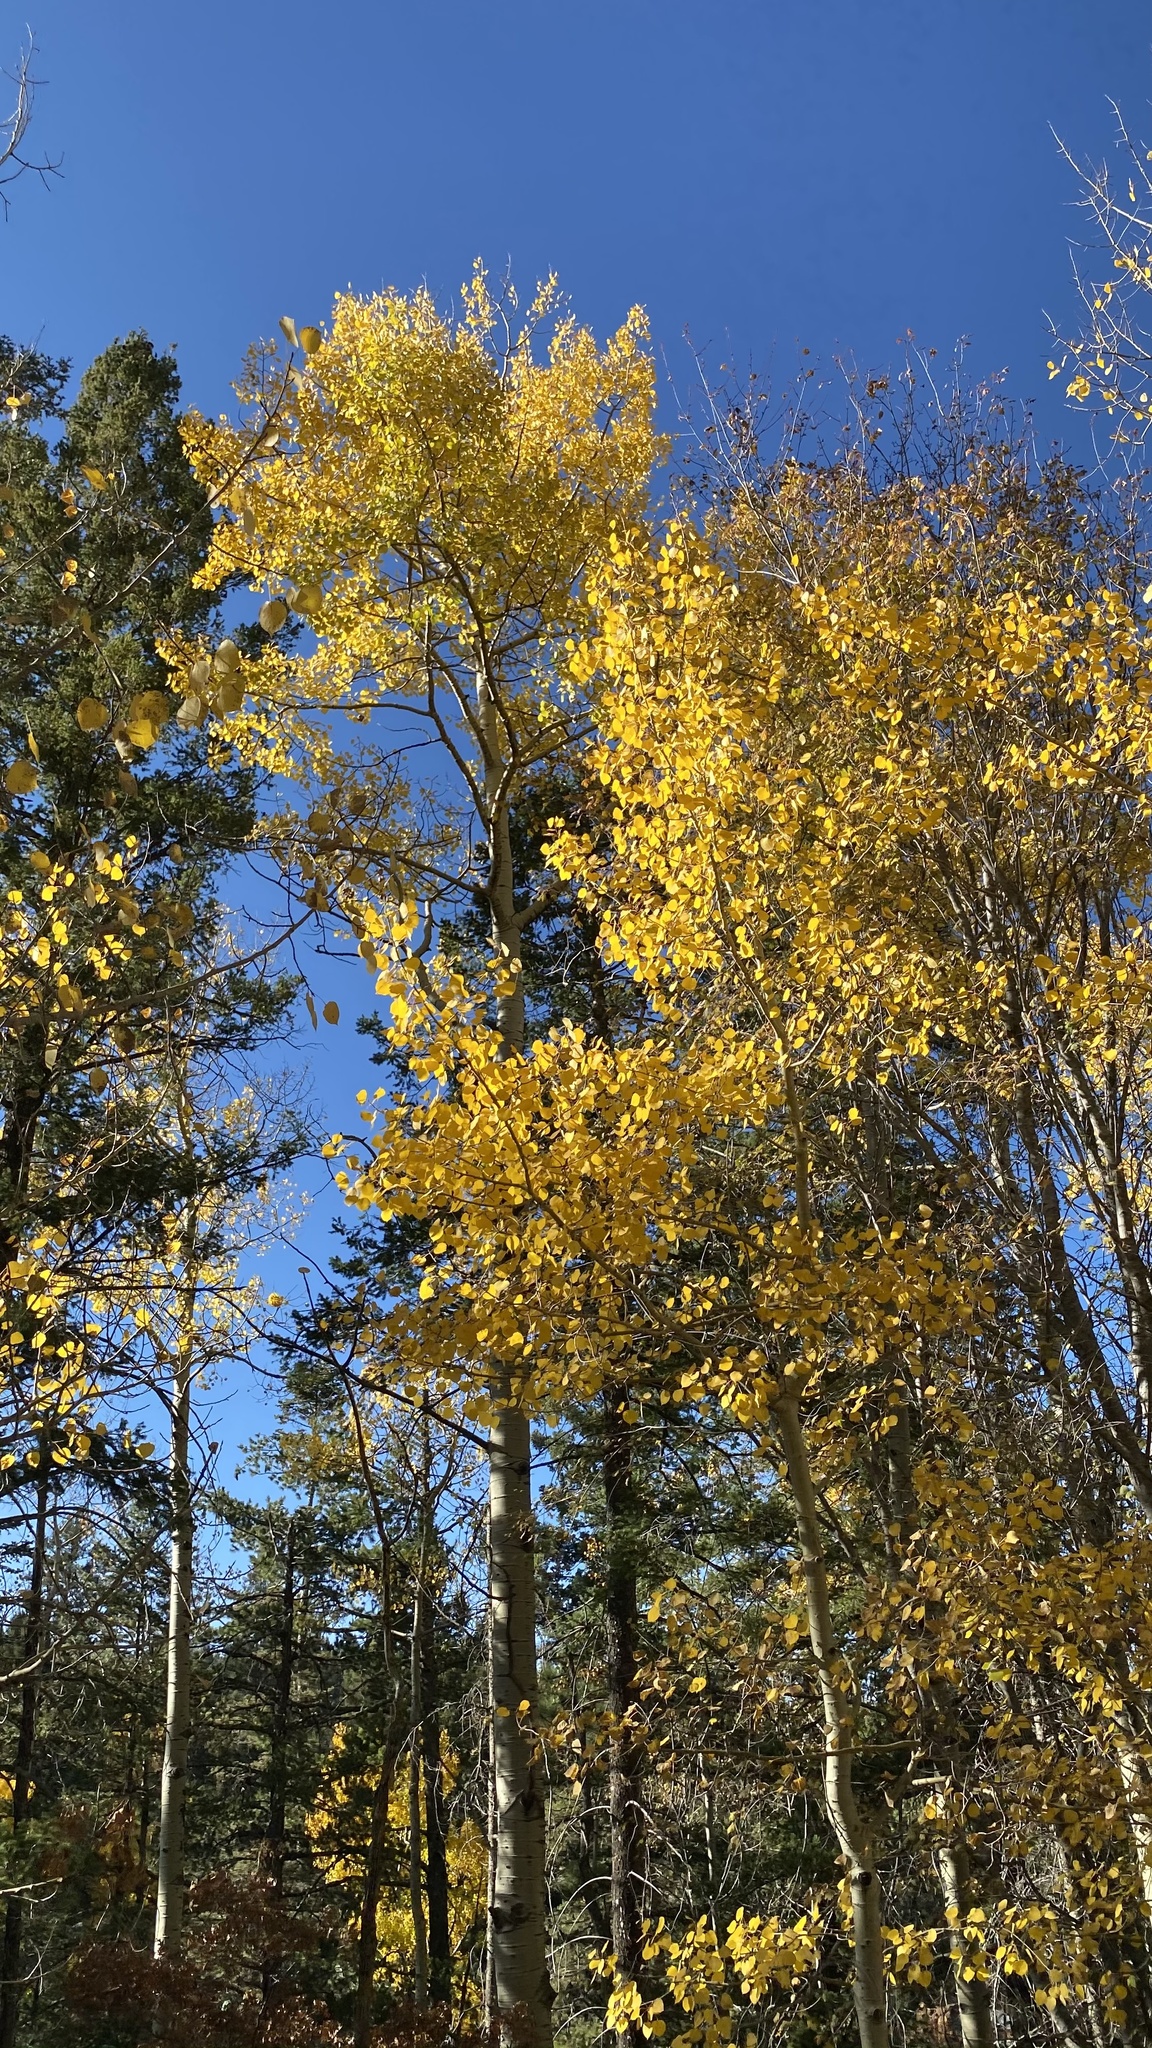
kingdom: Plantae
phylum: Tracheophyta
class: Magnoliopsida
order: Malpighiales
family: Salicaceae
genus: Populus
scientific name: Populus tremuloides
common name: Quaking aspen
